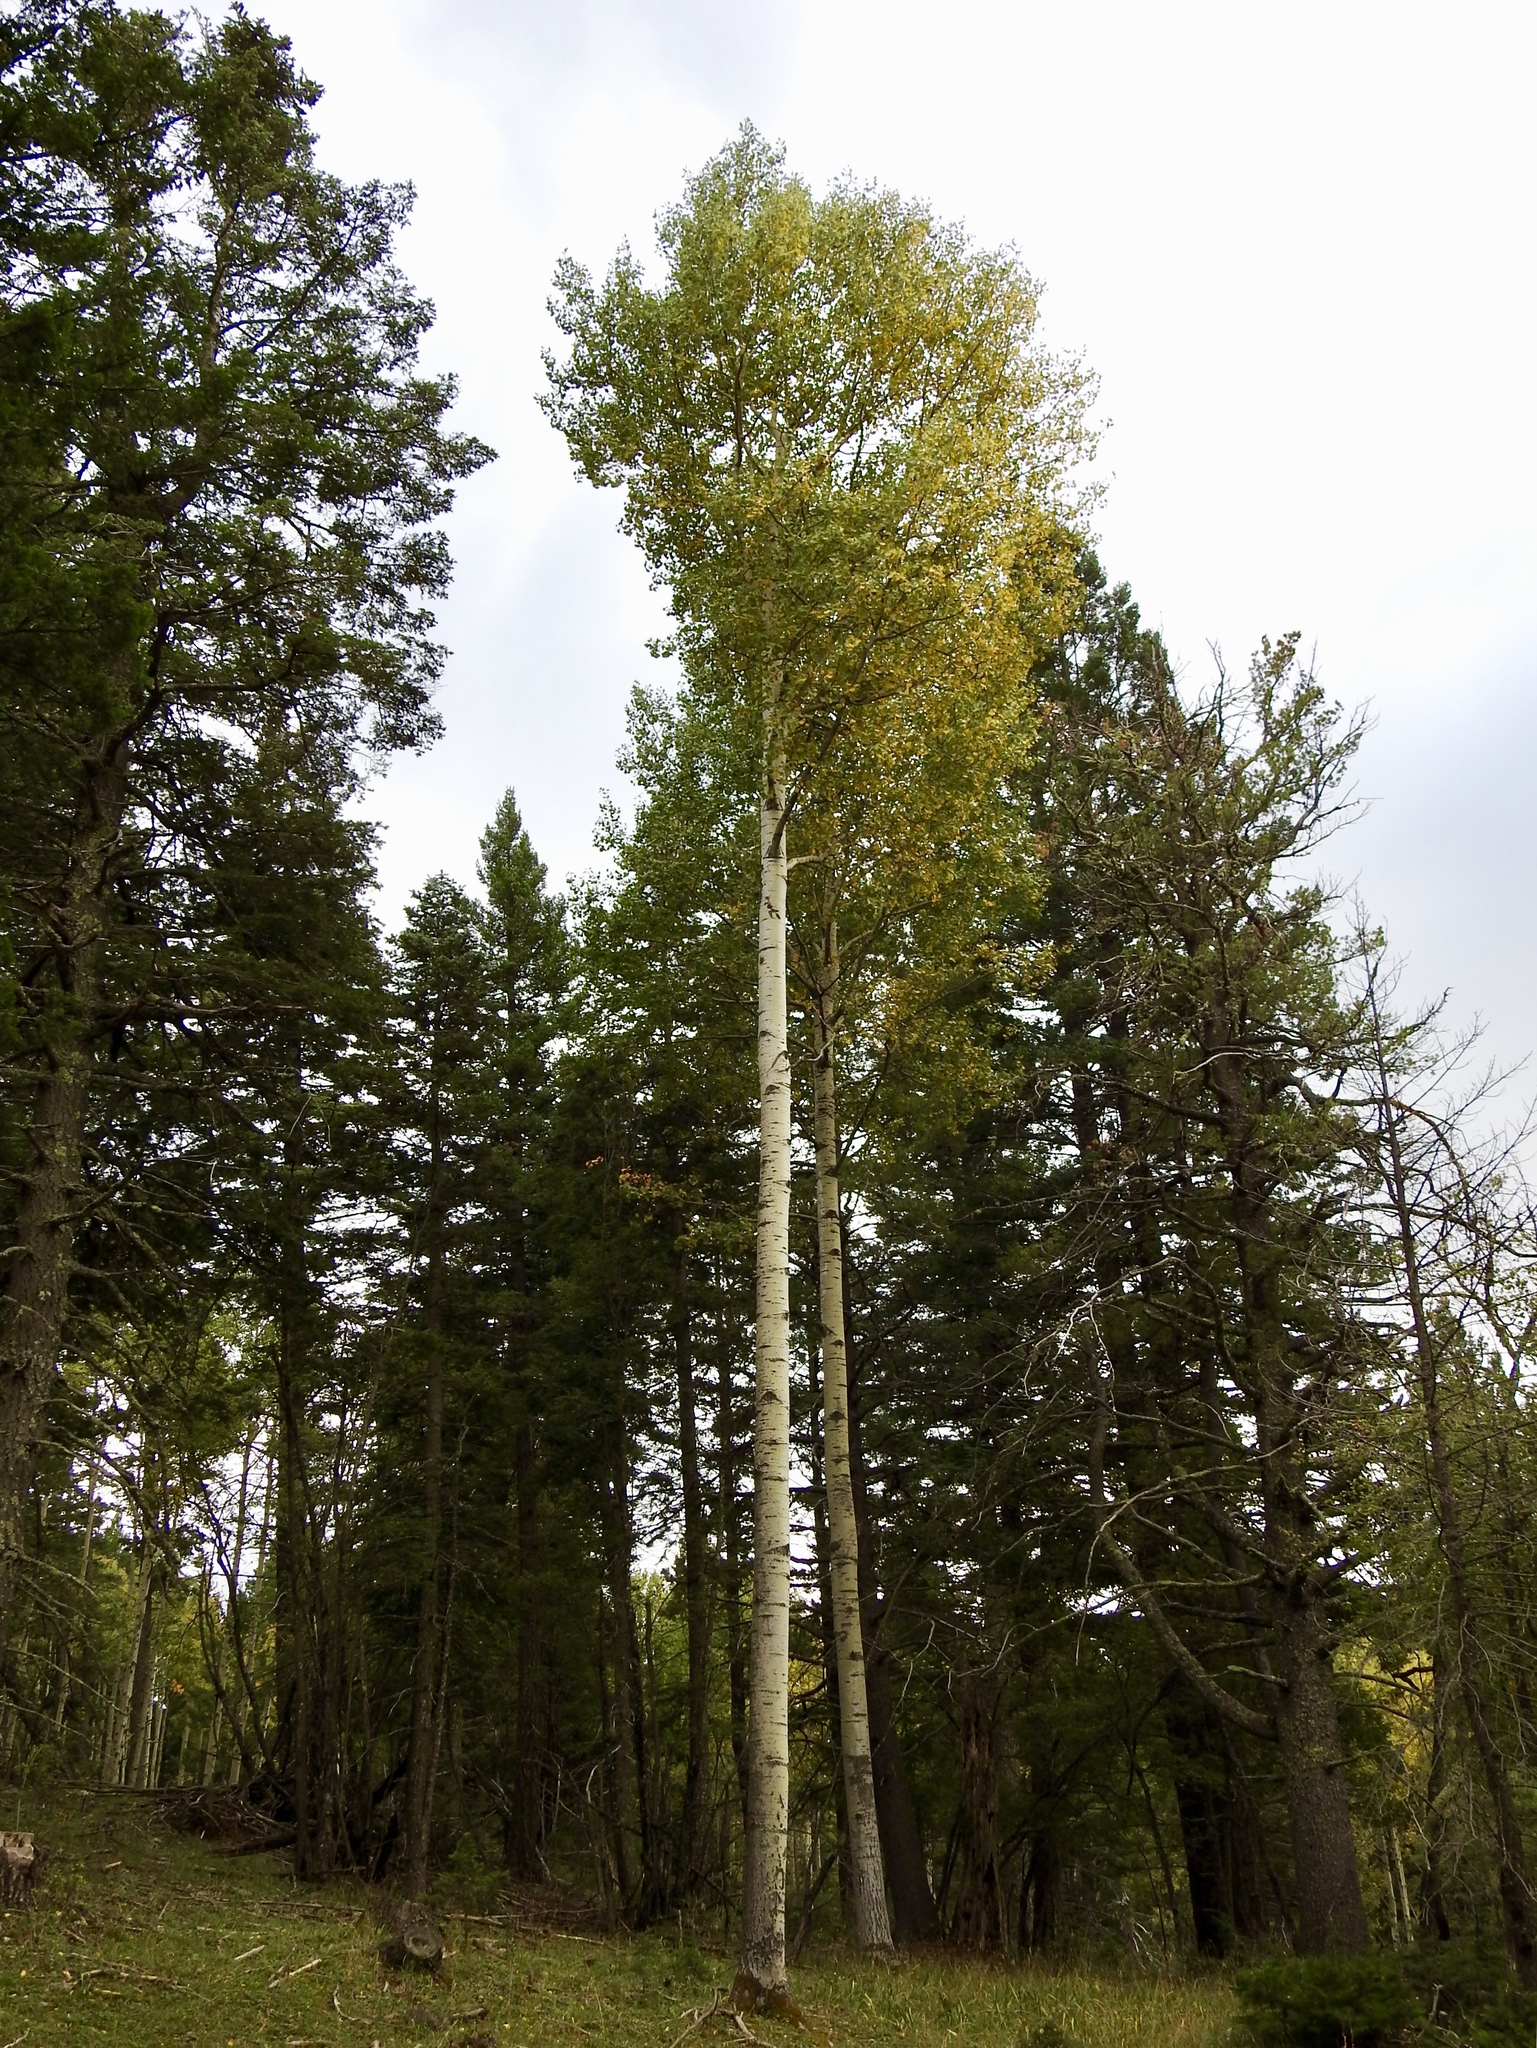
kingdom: Plantae
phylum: Tracheophyta
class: Magnoliopsida
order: Malpighiales
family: Salicaceae
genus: Populus
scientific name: Populus tremuloides
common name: Quaking aspen
